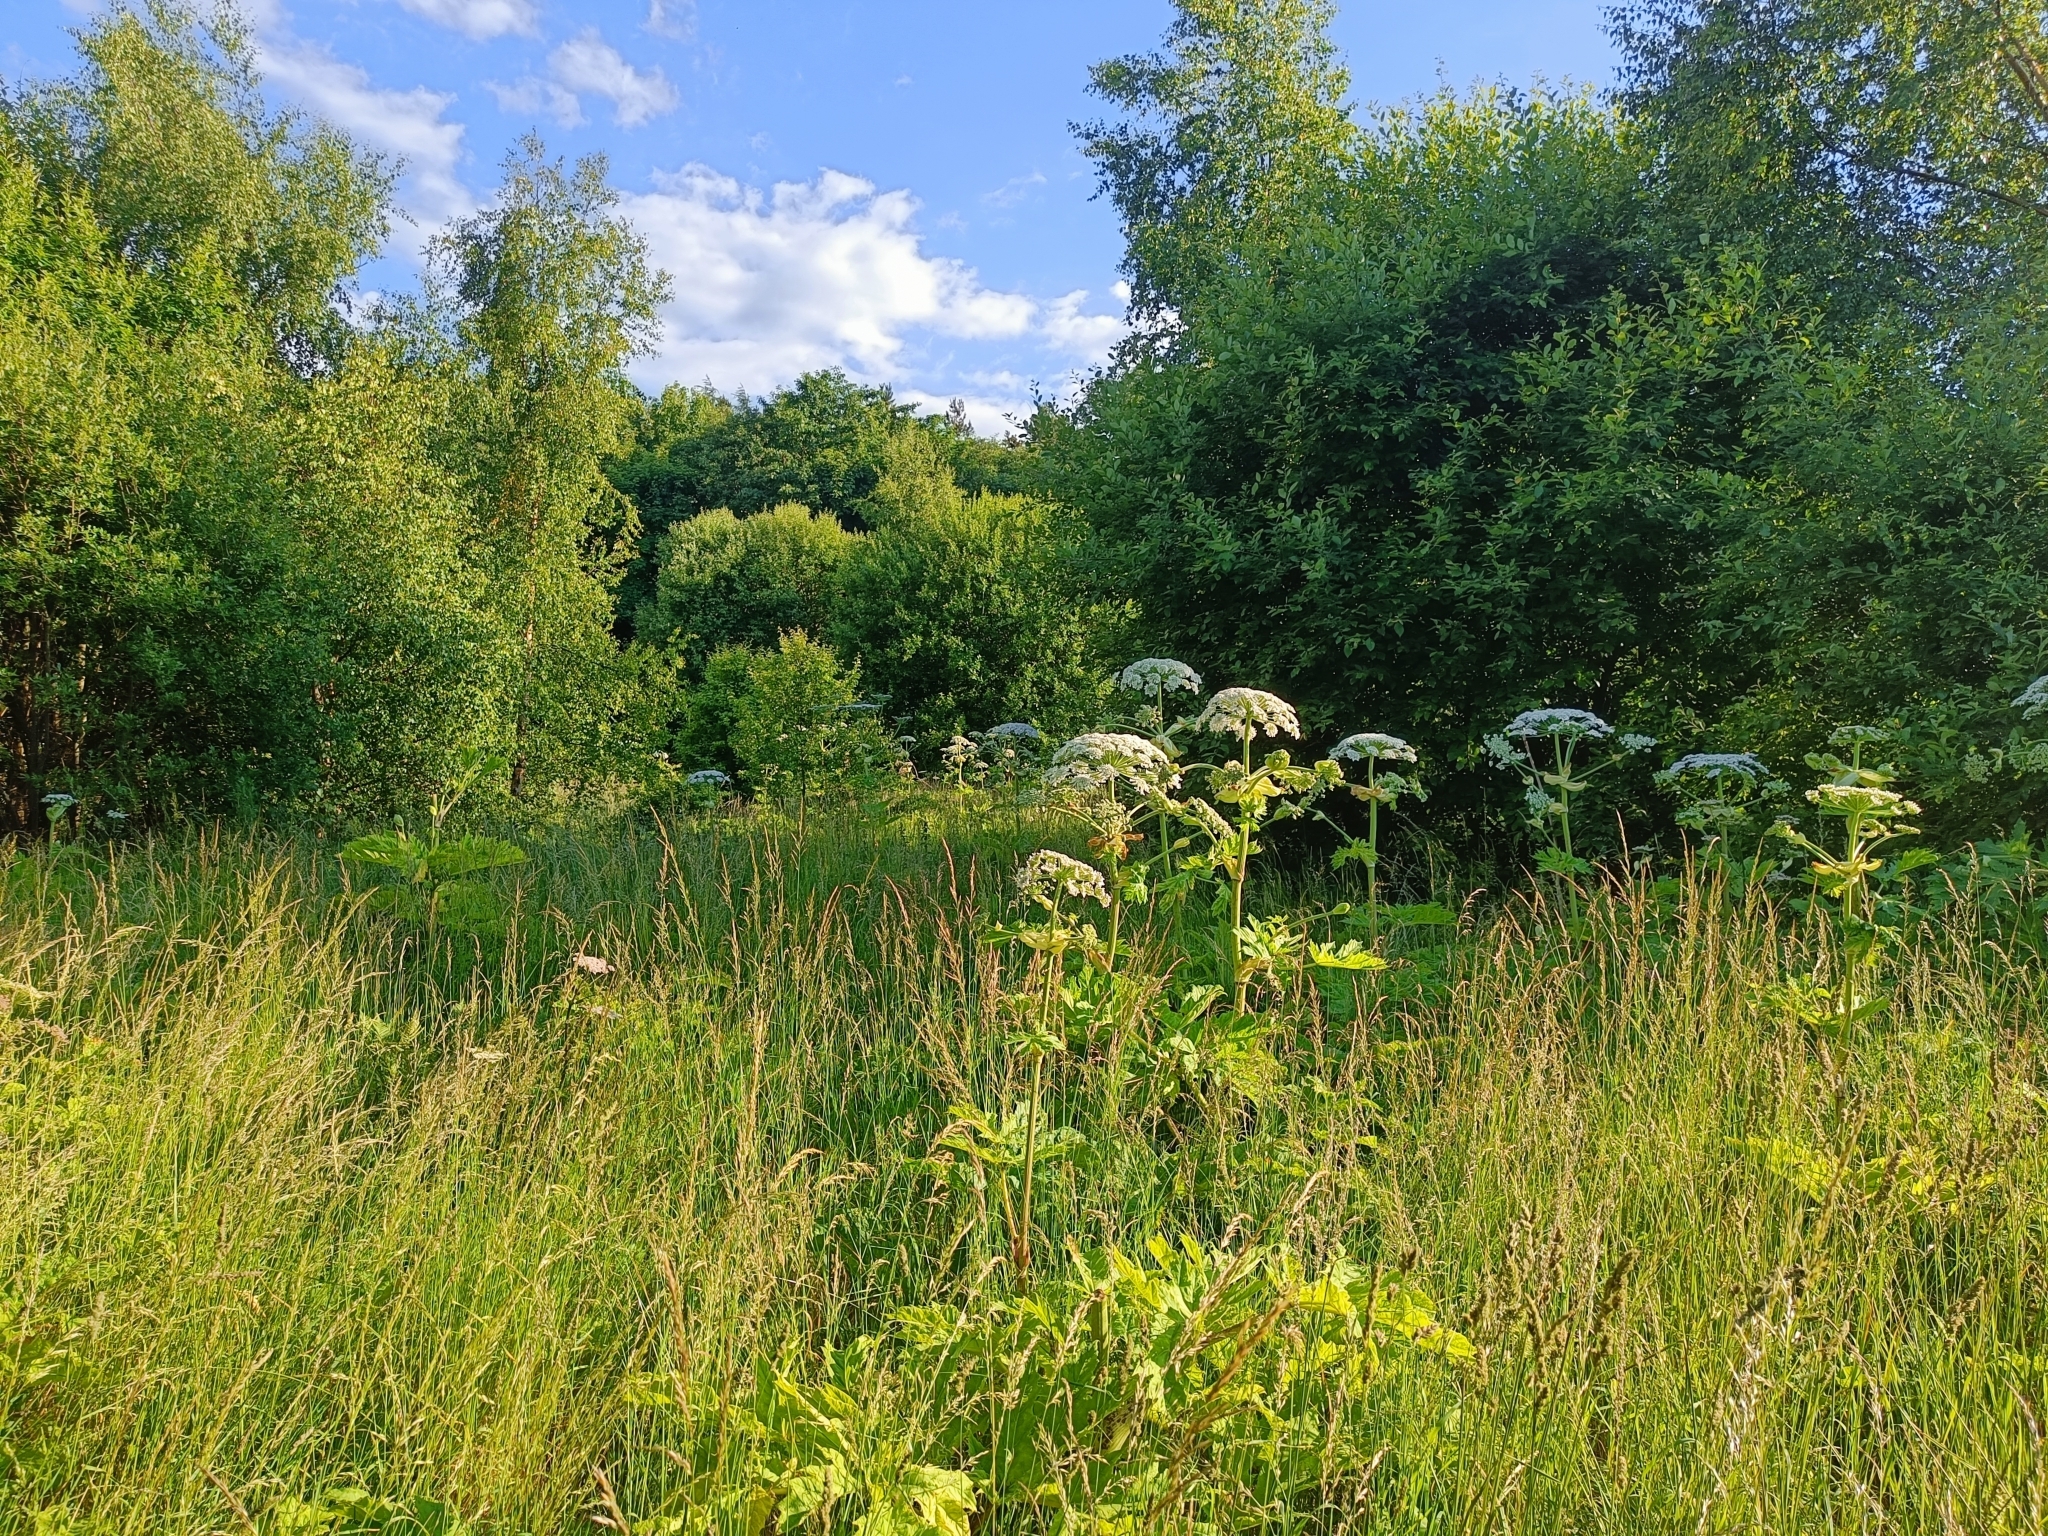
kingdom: Plantae
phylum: Tracheophyta
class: Magnoliopsida
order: Apiales
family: Apiaceae
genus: Heracleum
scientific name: Heracleum mantegazzianum
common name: Giant hogweed
